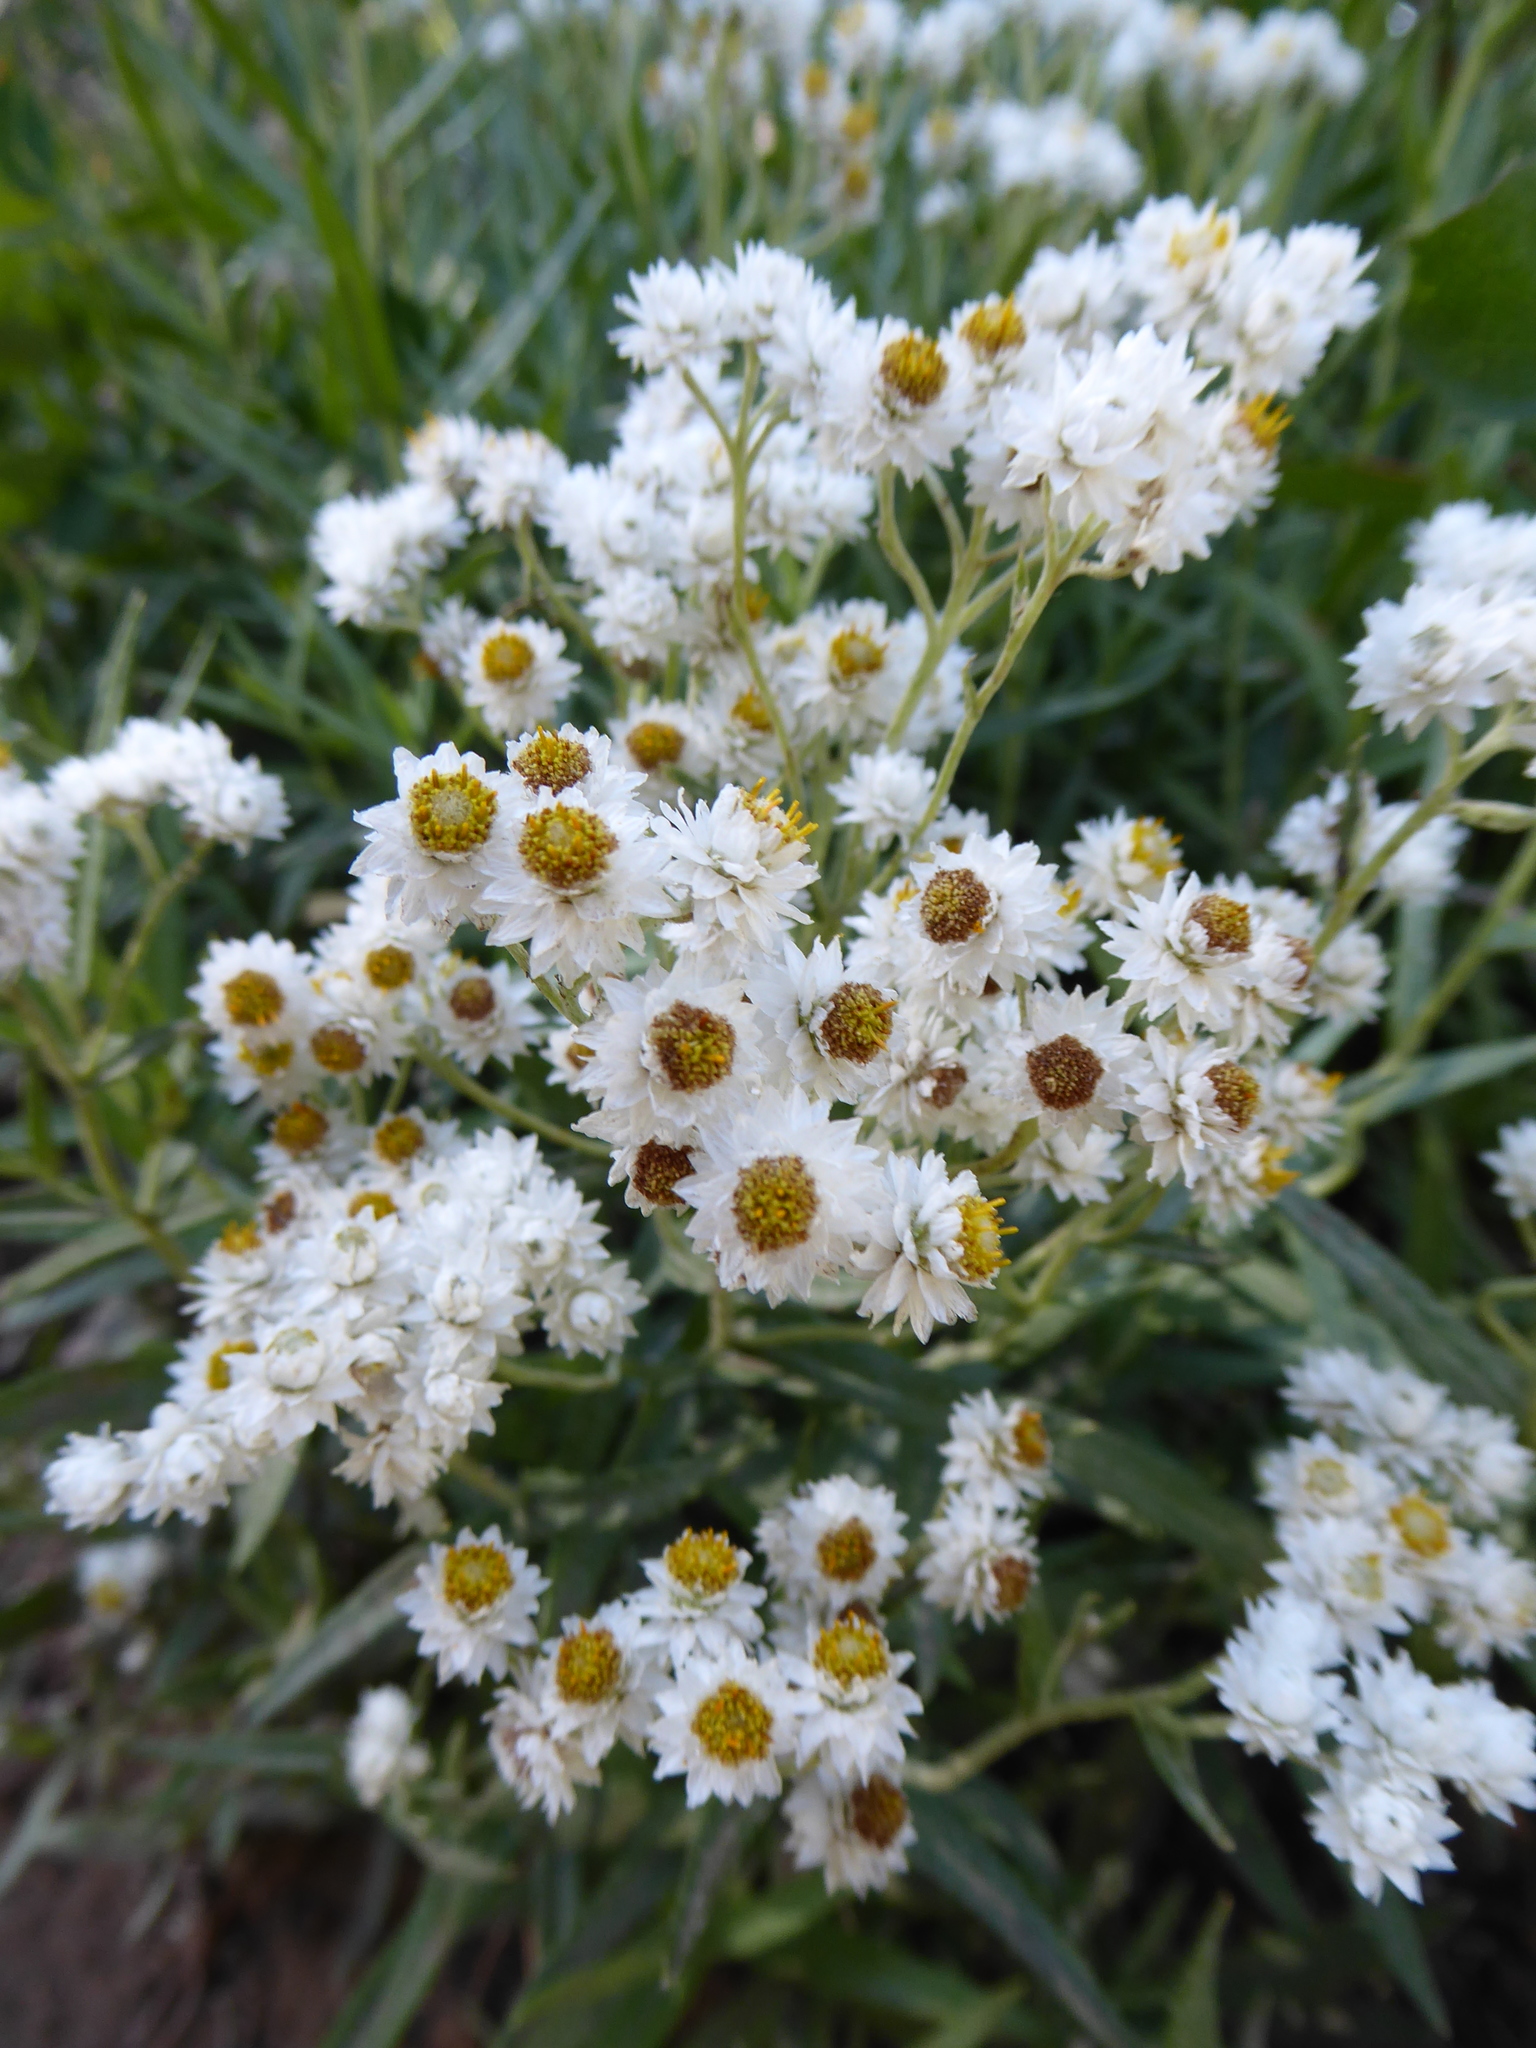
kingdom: Plantae
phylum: Tracheophyta
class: Magnoliopsida
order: Asterales
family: Asteraceae
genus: Anaphalis
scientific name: Anaphalis margaritacea
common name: Pearly everlasting
